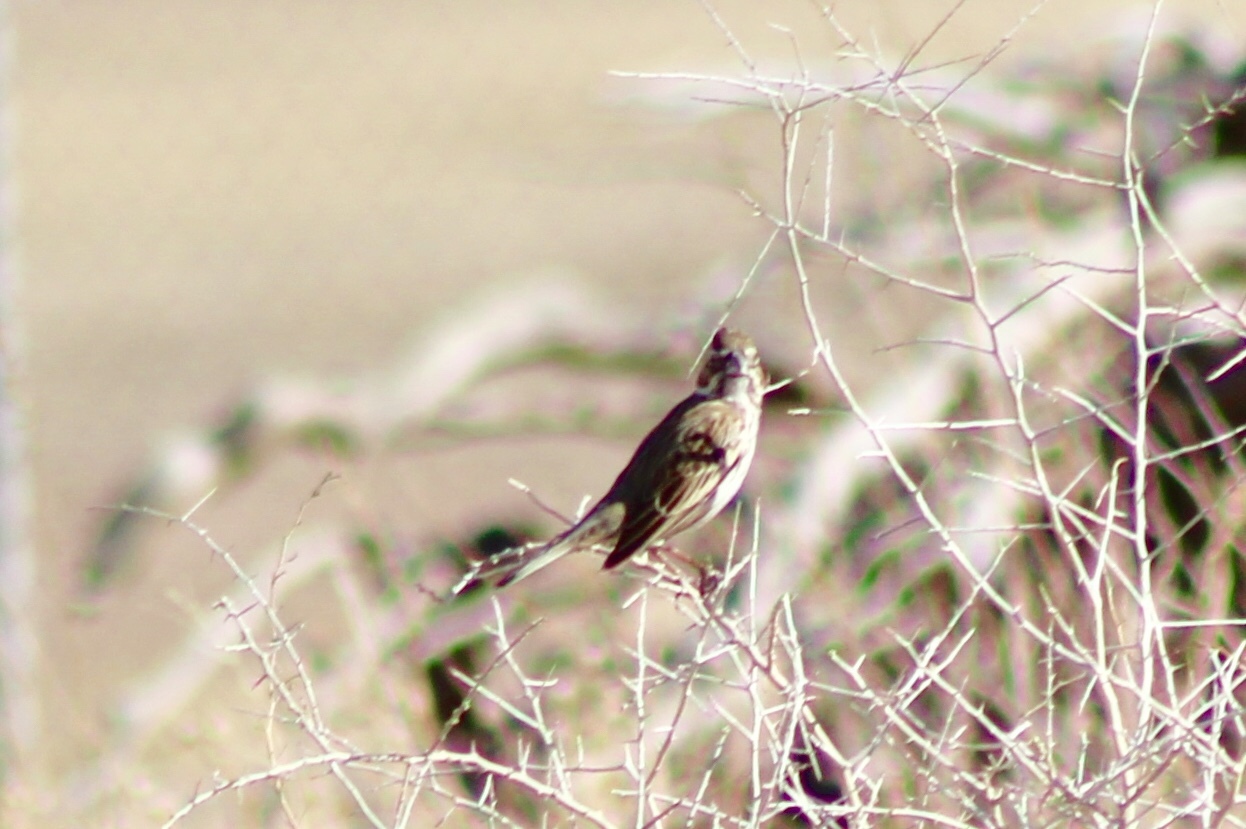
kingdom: Animalia
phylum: Chordata
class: Aves
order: Passeriformes
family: Passerellidae
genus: Calamospiza
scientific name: Calamospiza melanocorys
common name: Lark bunting
